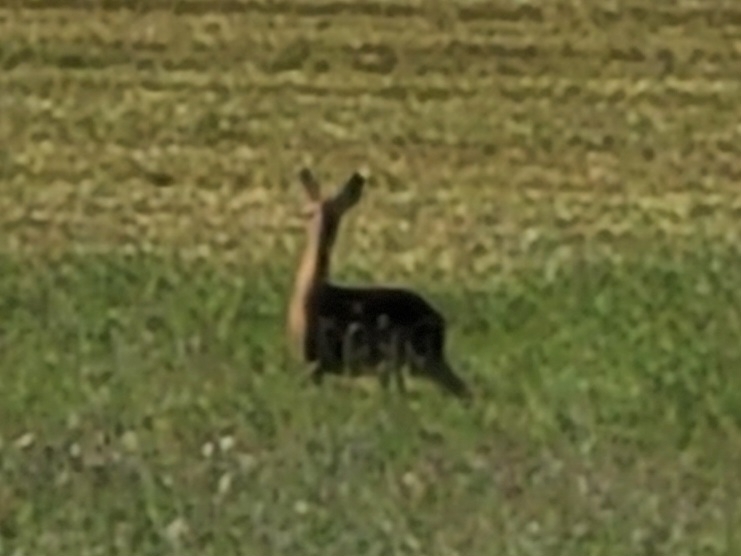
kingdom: Animalia
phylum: Chordata
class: Mammalia
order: Artiodactyla
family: Cervidae
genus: Capreolus
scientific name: Capreolus capreolus
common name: Western roe deer
